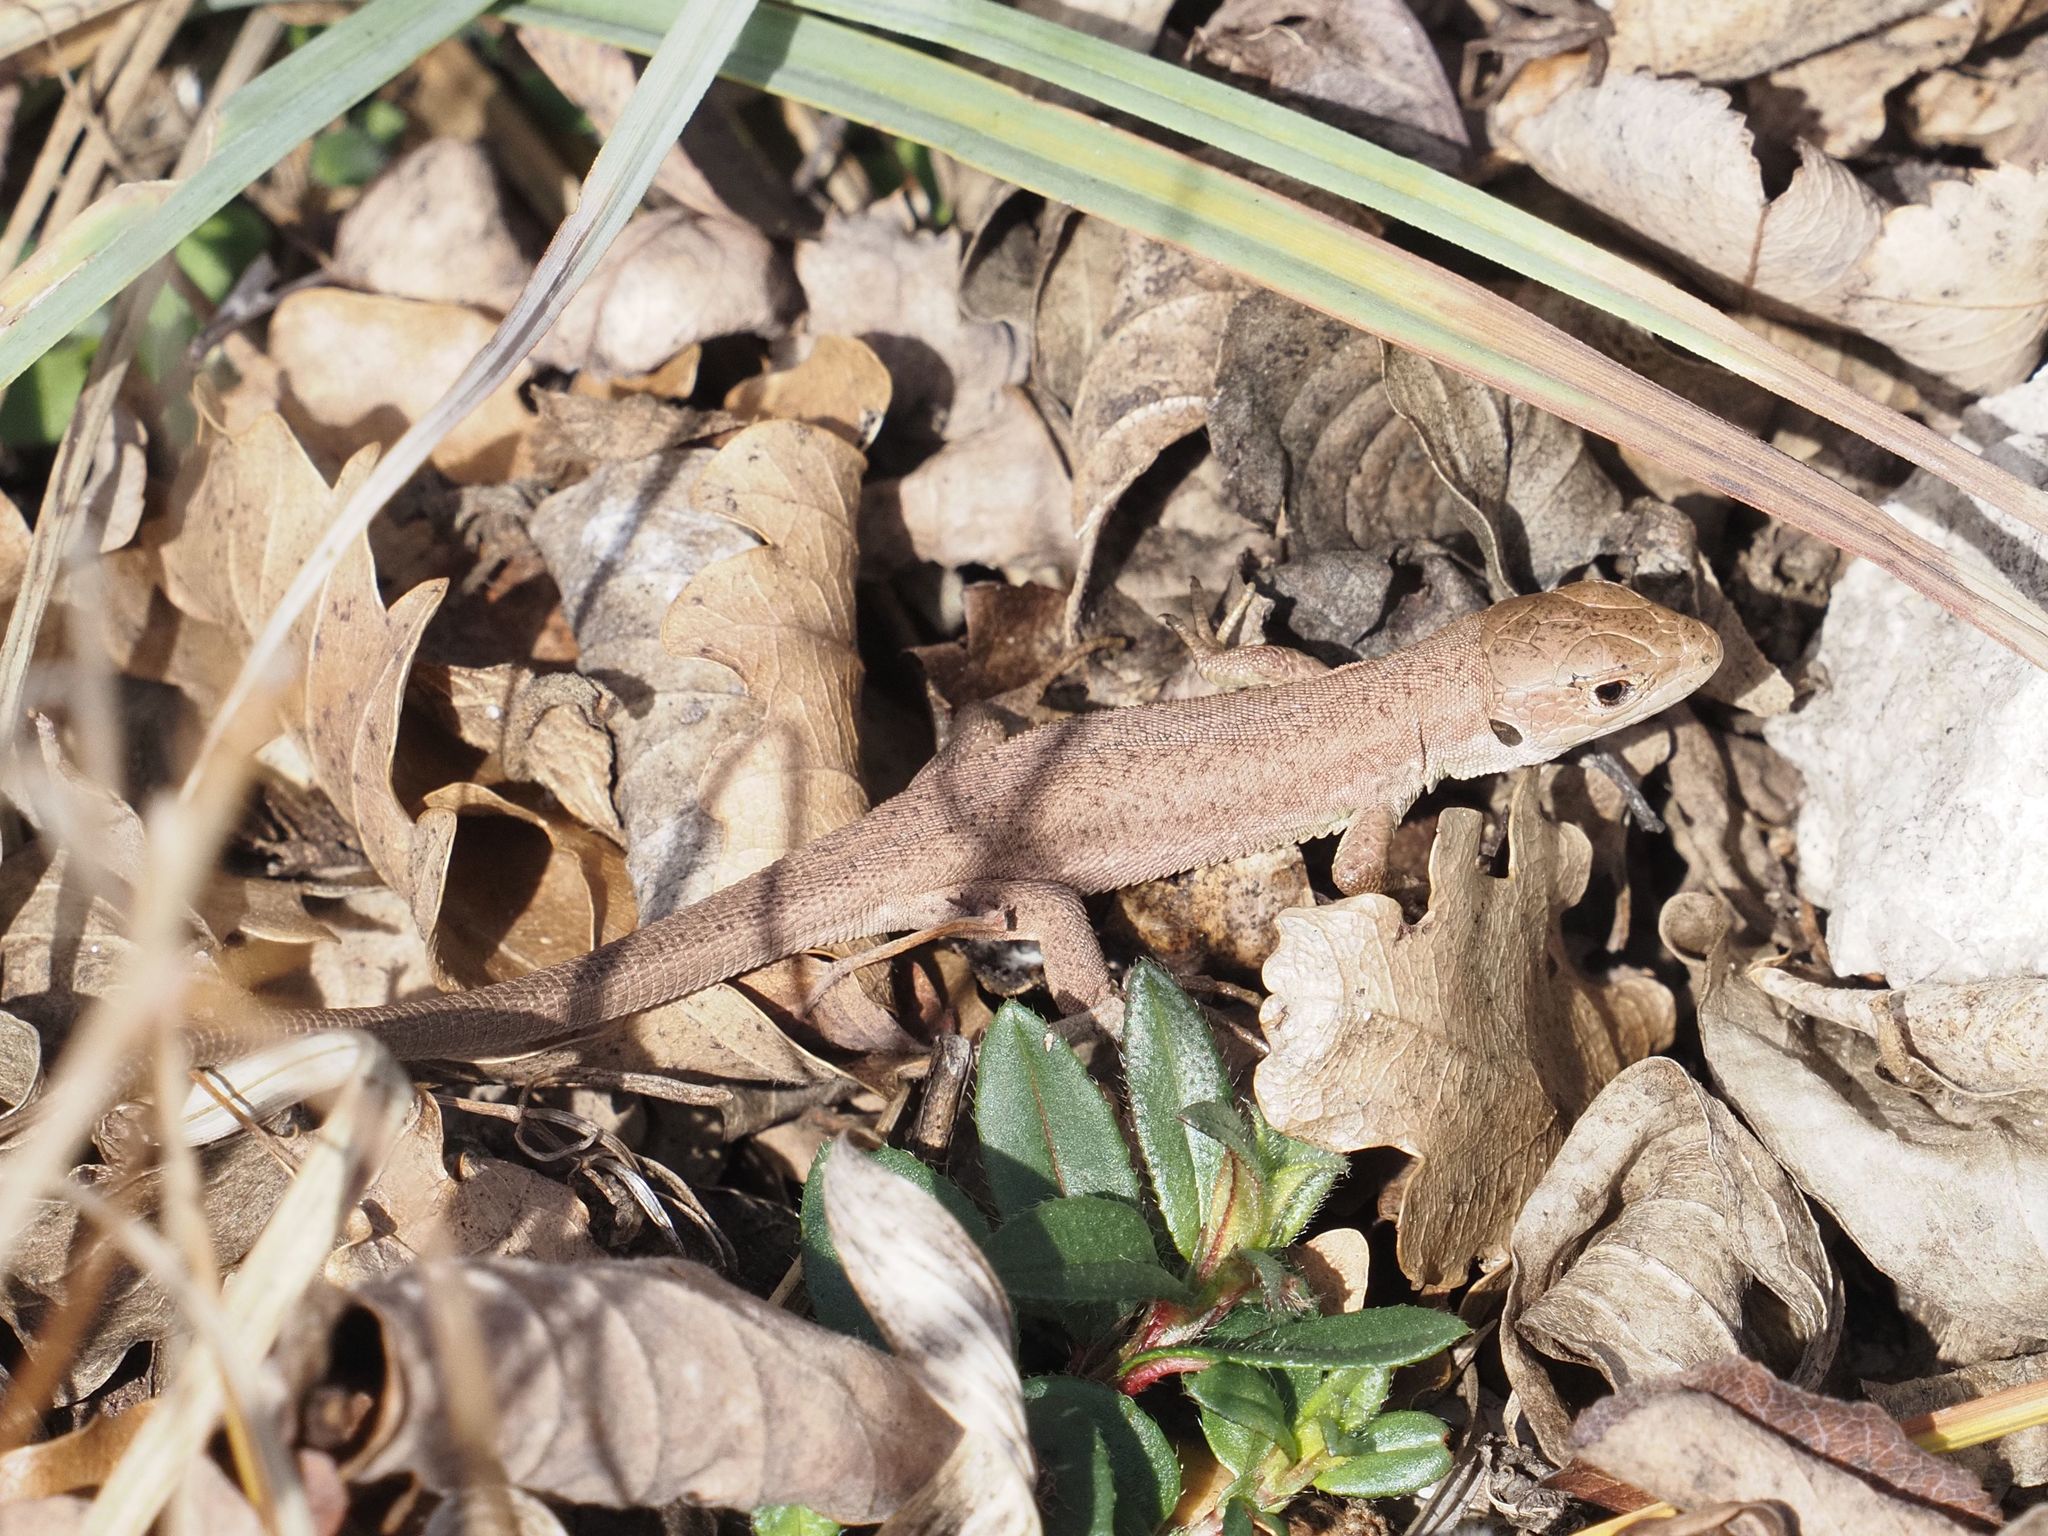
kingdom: Animalia
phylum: Chordata
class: Squamata
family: Lacertidae
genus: Lacerta
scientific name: Lacerta viridis
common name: European green lizard
